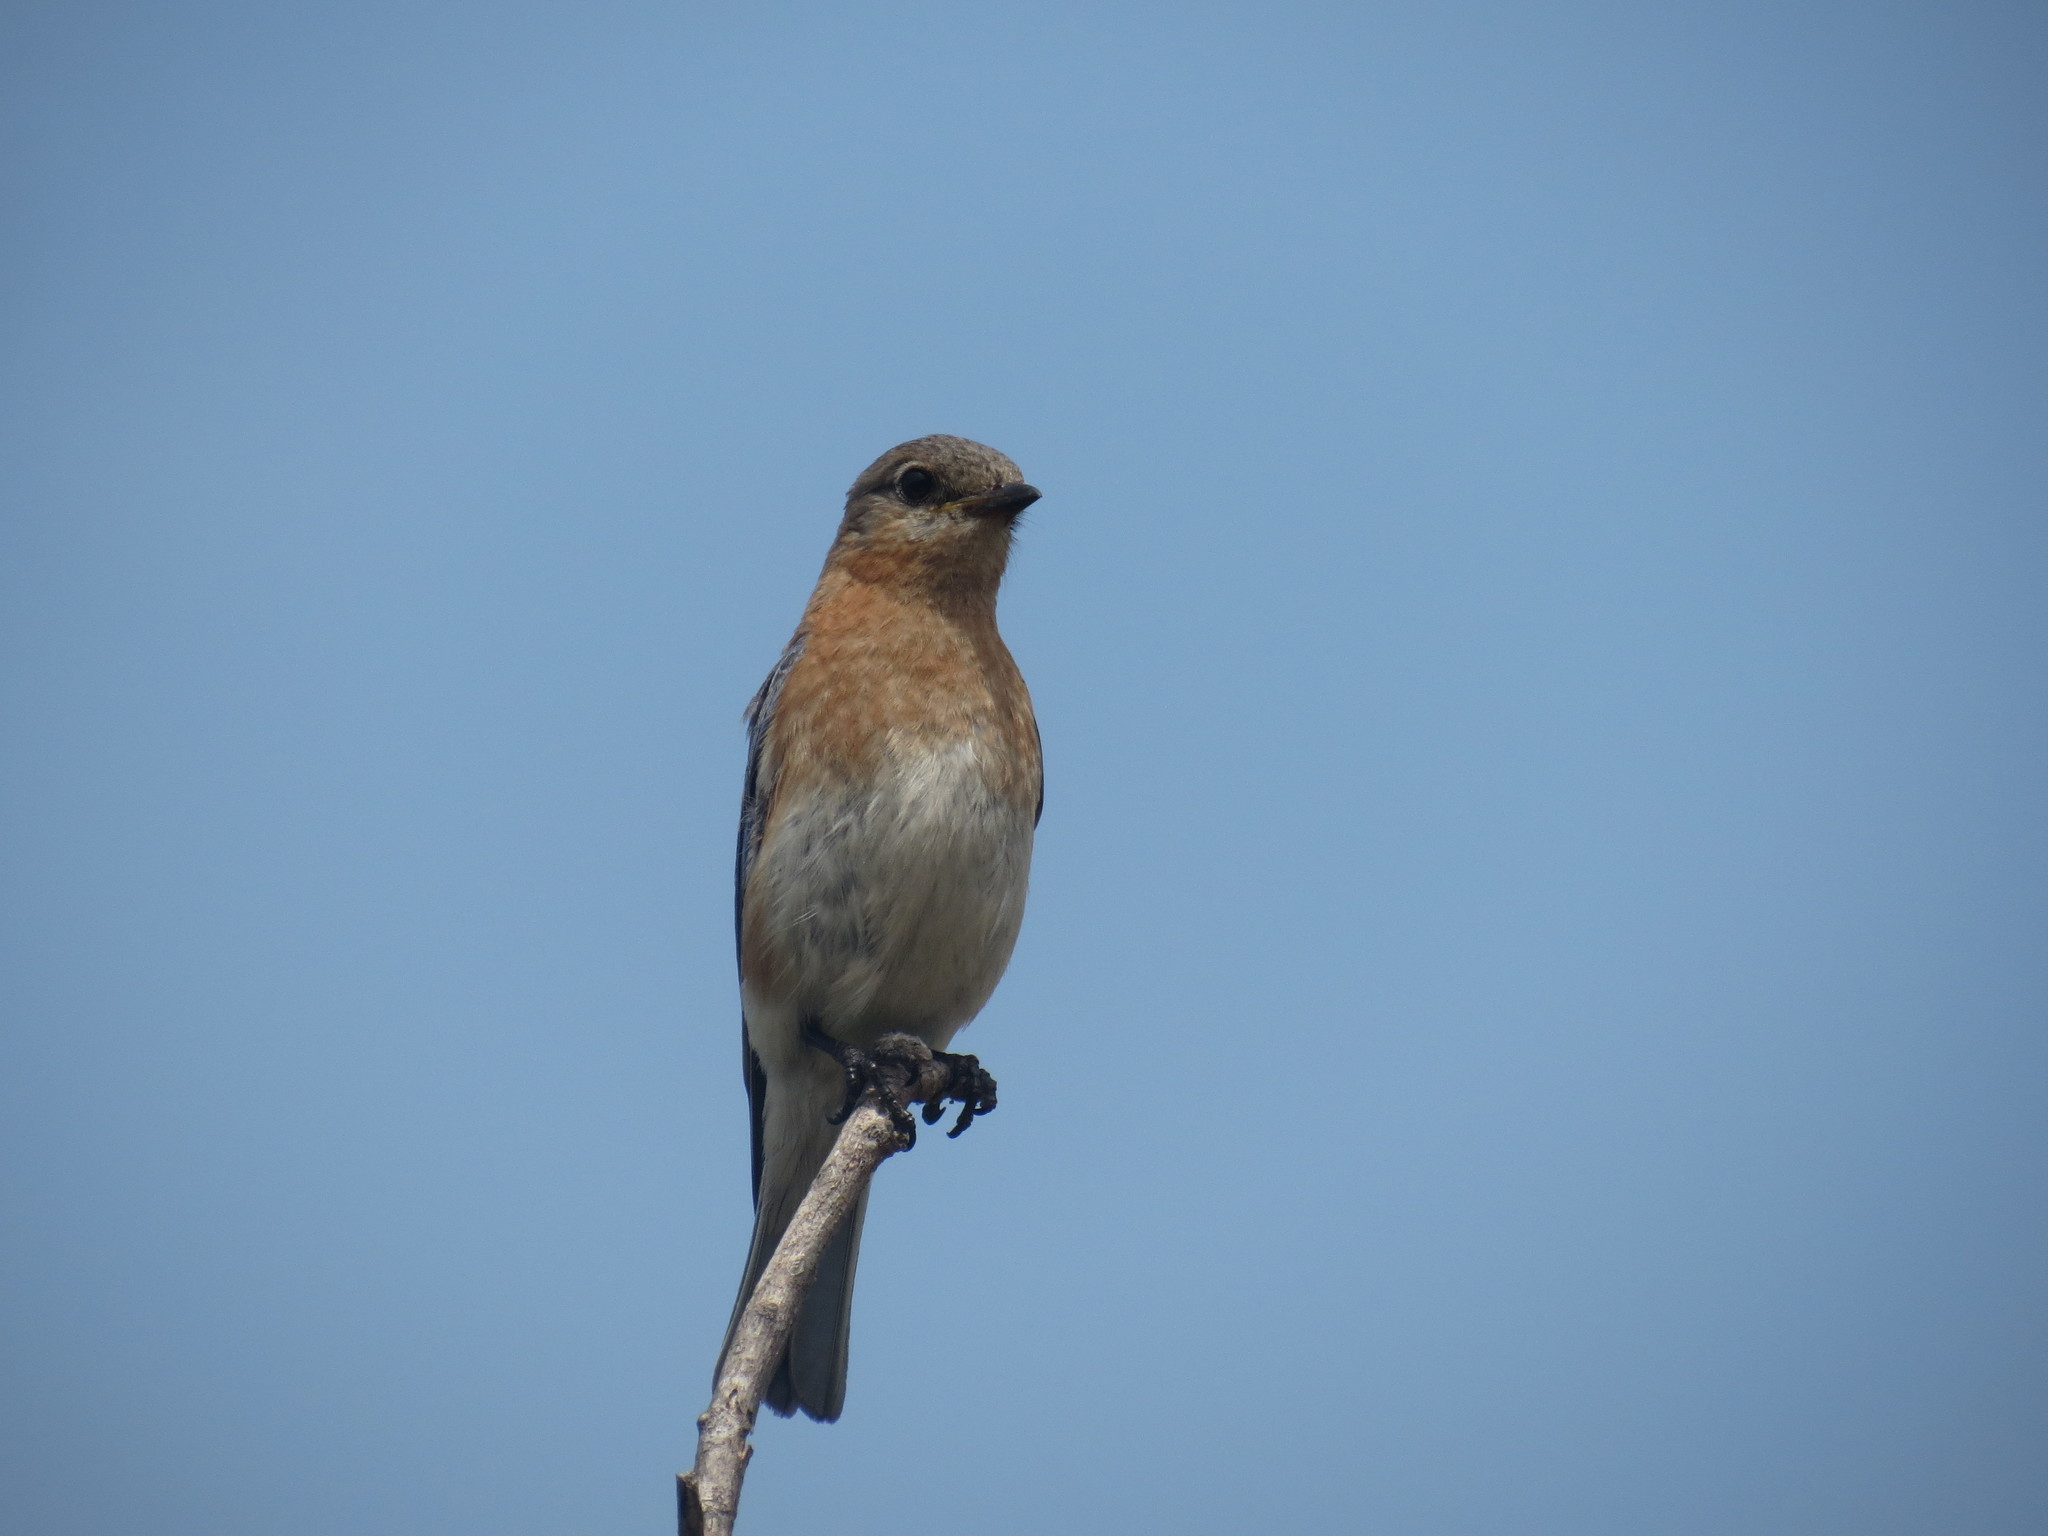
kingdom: Animalia
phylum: Chordata
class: Aves
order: Passeriformes
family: Turdidae
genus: Sialia
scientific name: Sialia sialis
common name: Eastern bluebird
